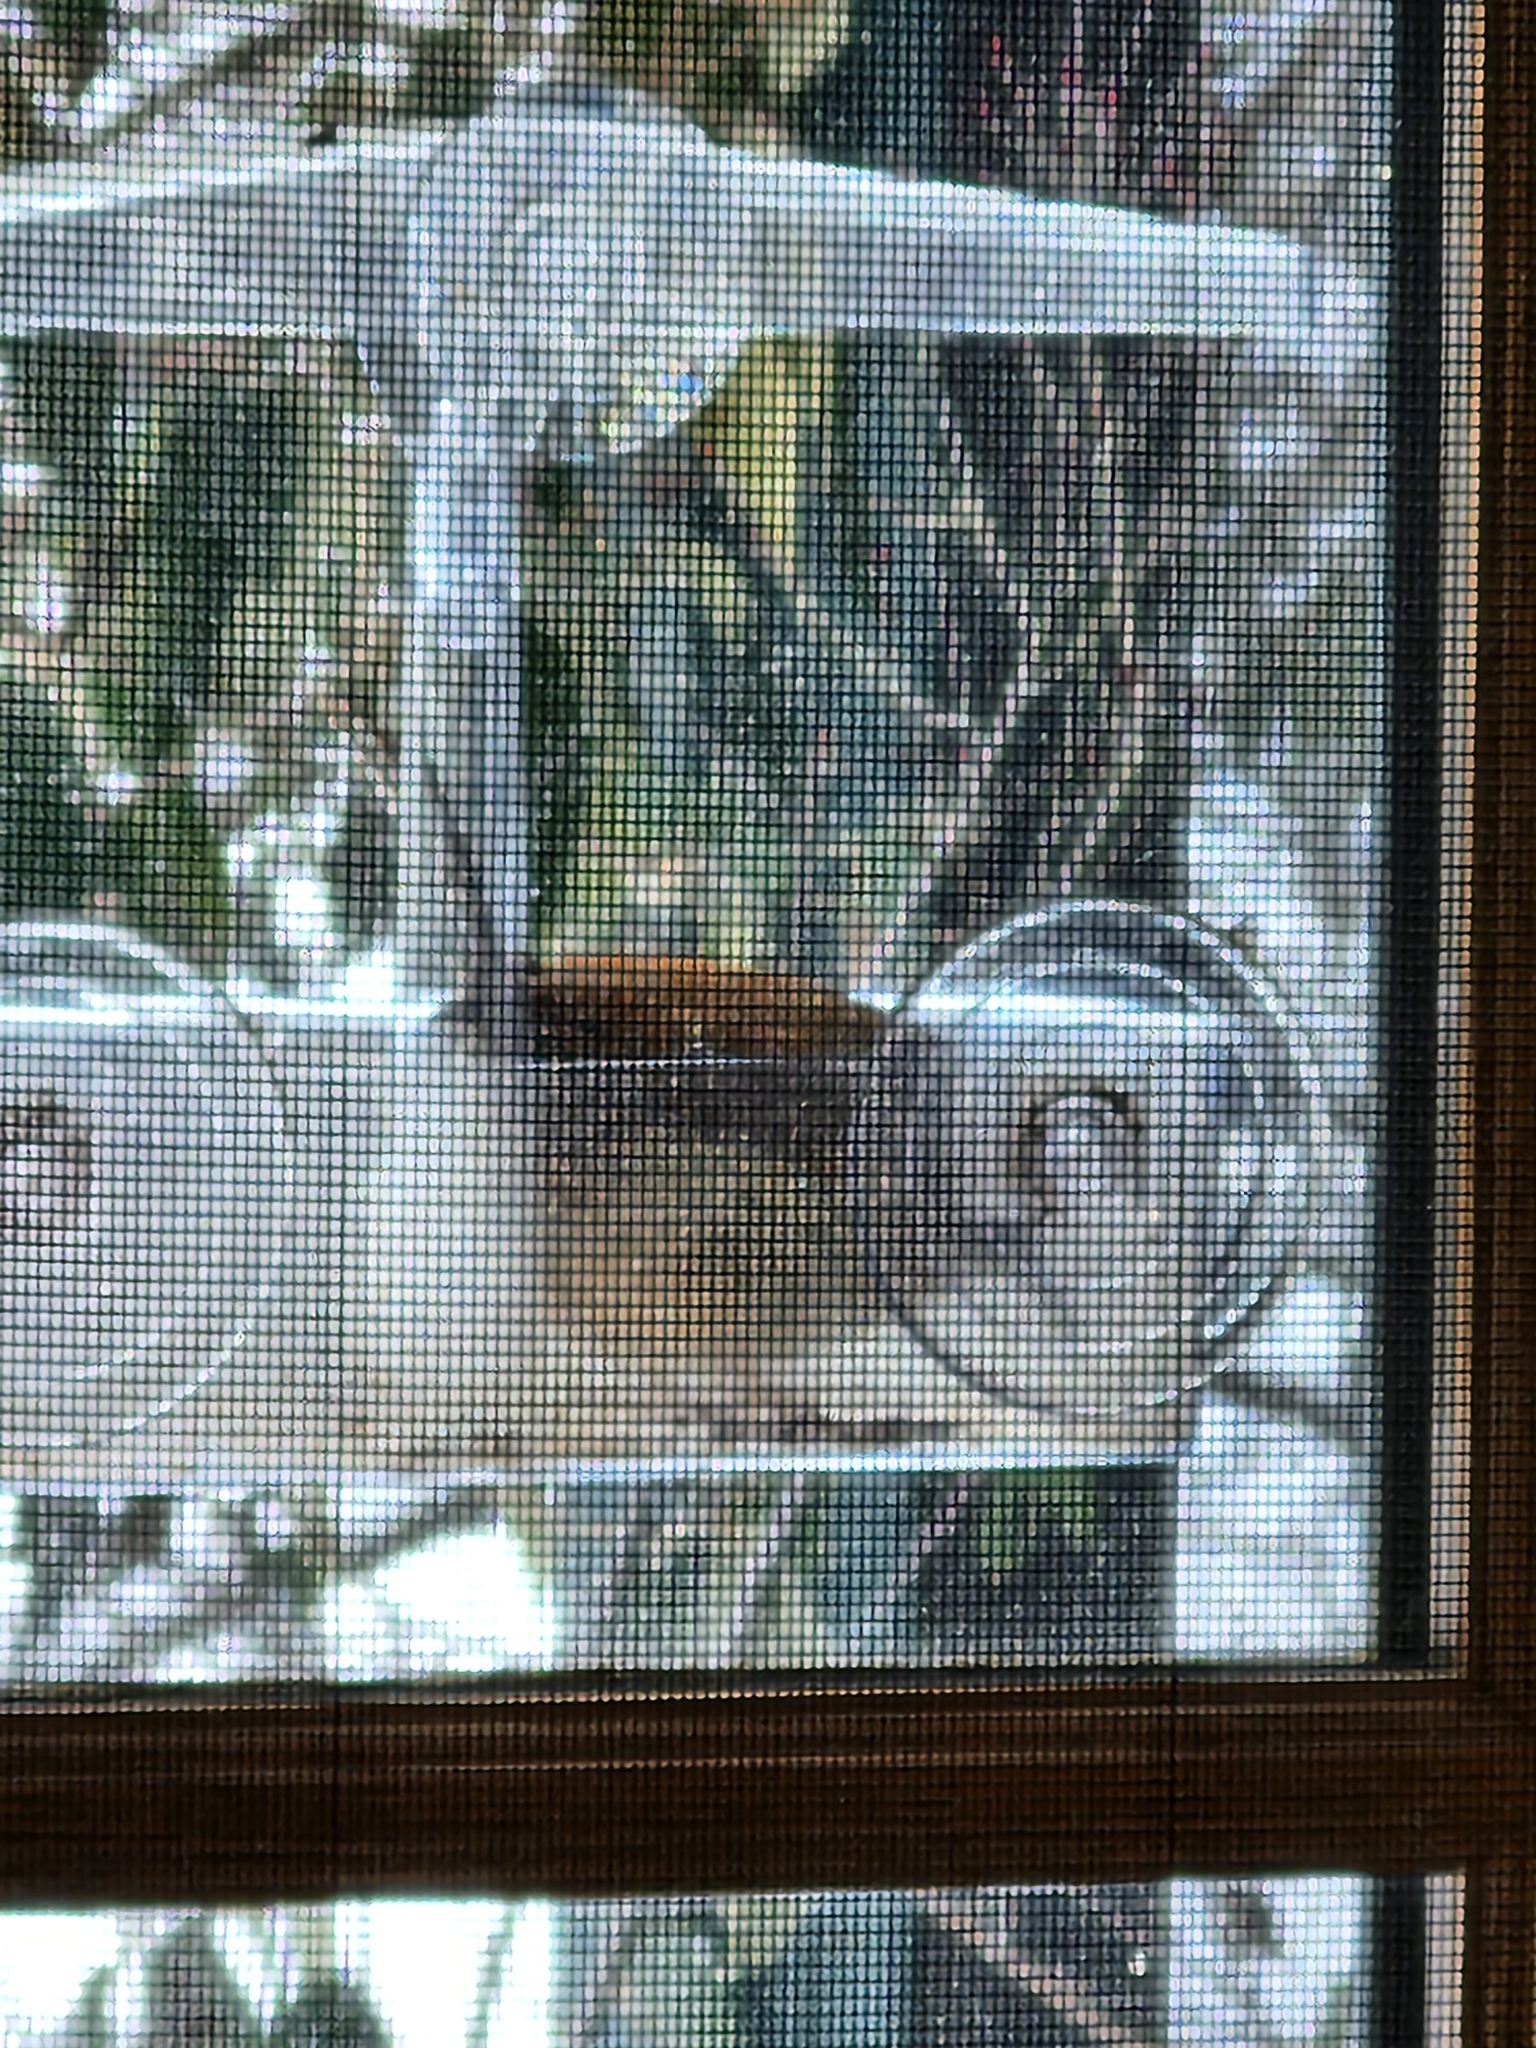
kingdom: Animalia
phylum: Chordata
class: Aves
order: Passeriformes
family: Troglodytidae
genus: Thryothorus
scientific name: Thryothorus ludovicianus
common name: Carolina wren
